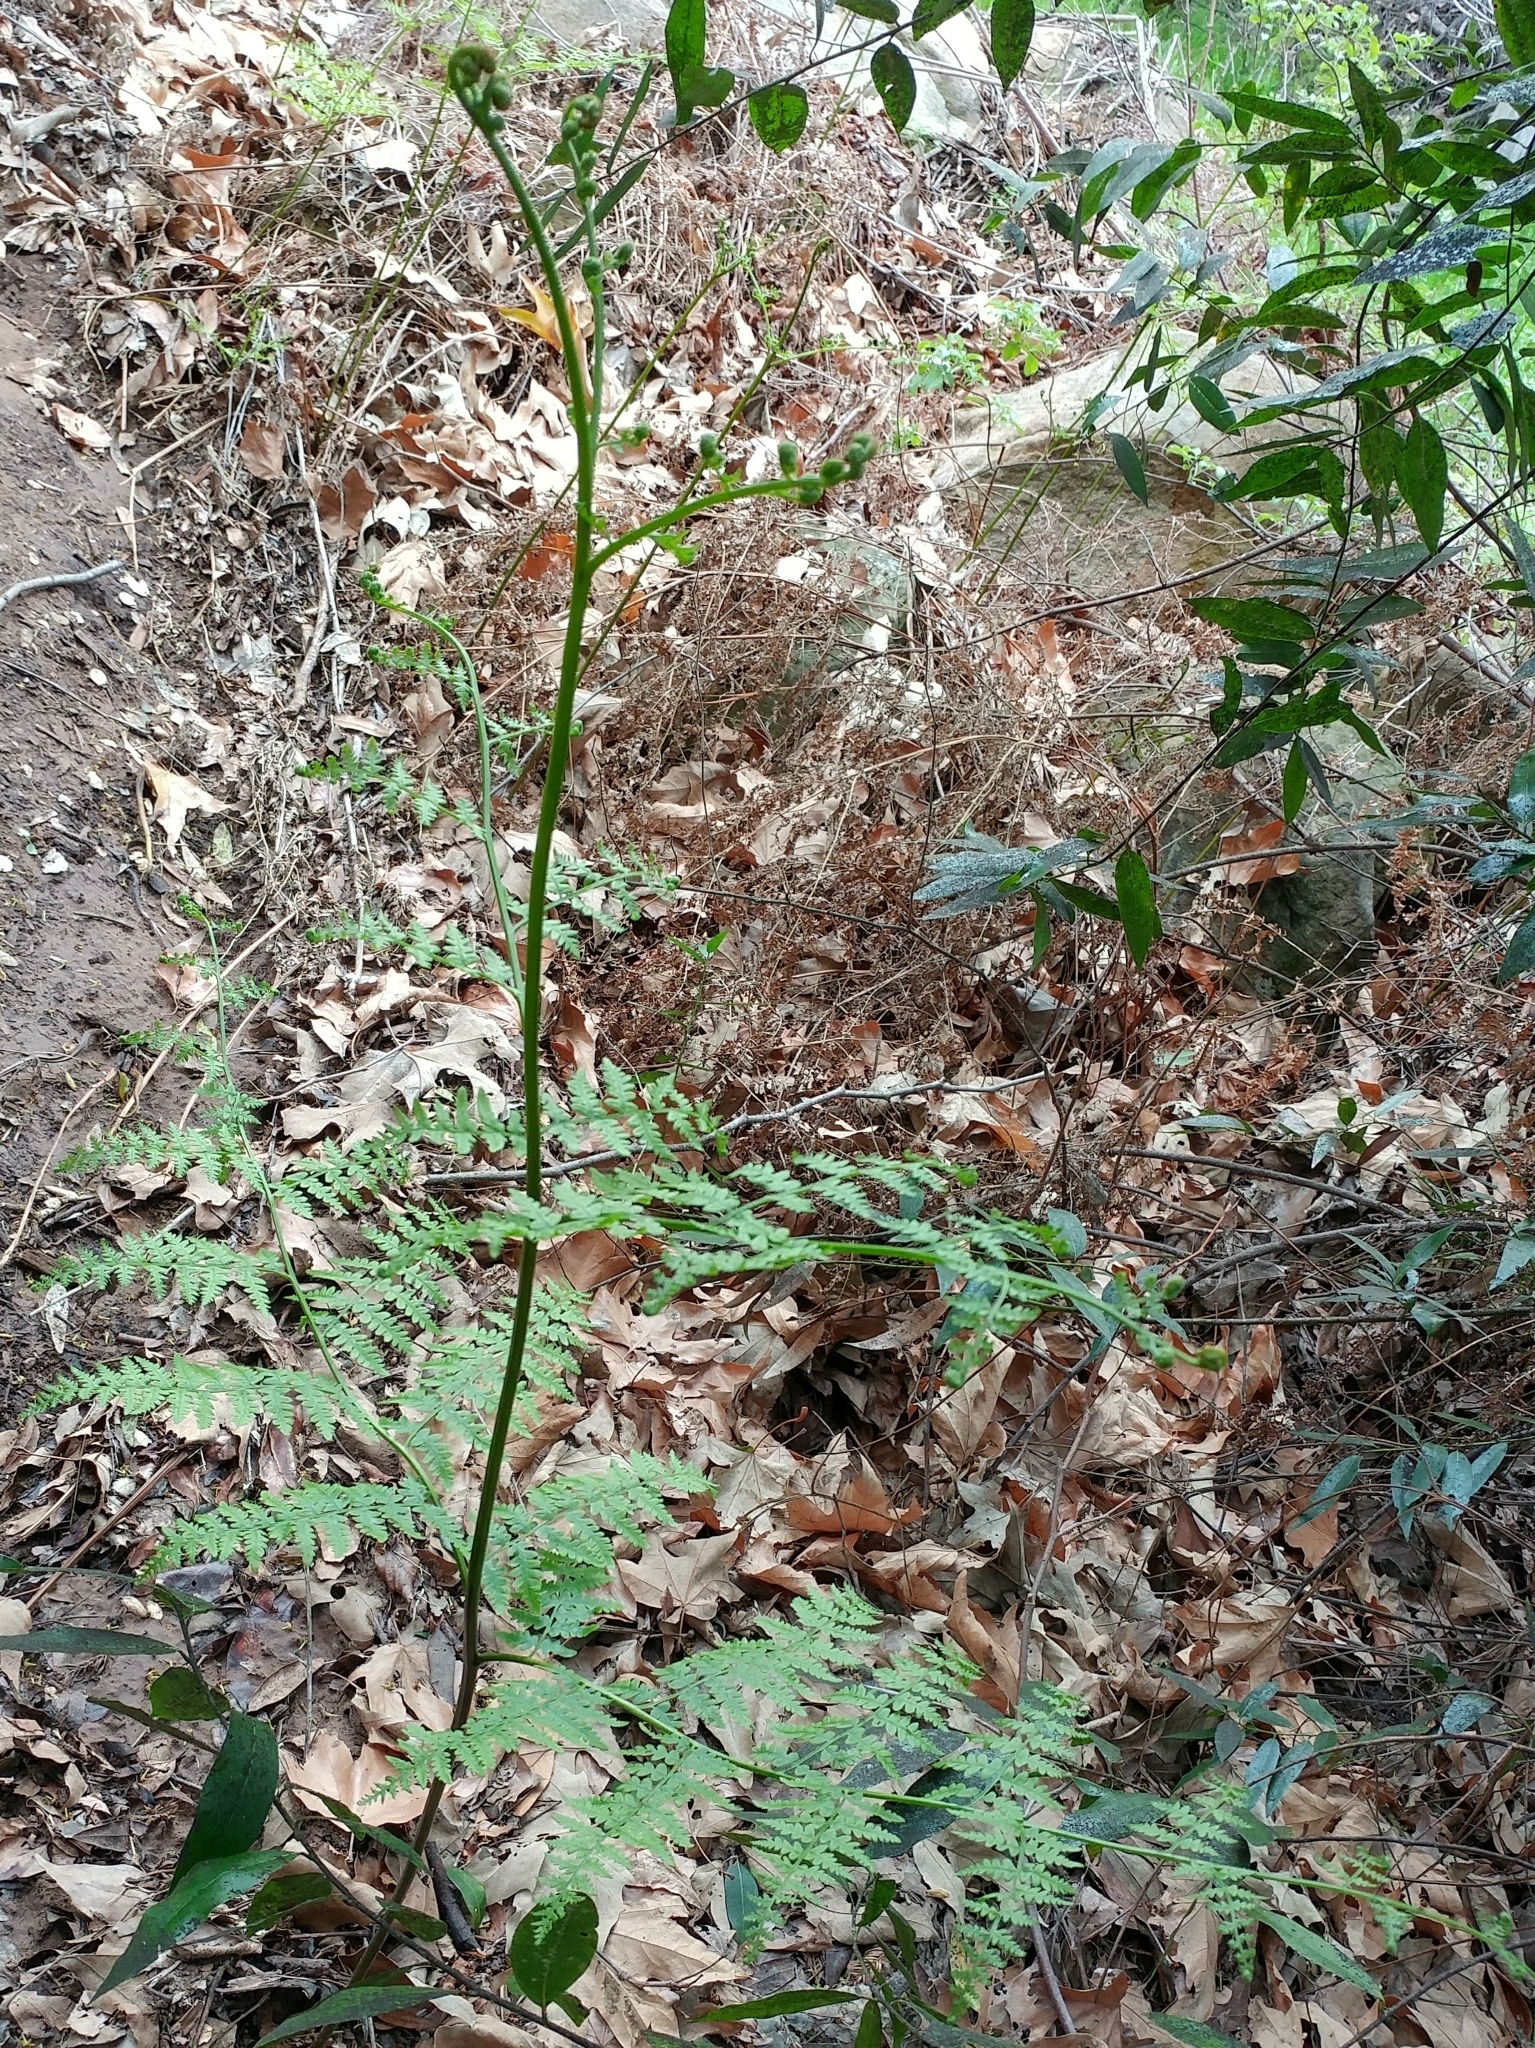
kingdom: Plantae
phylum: Tracheophyta
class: Polypodiopsida
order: Polypodiales
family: Dennstaedtiaceae
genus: Pteridium
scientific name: Pteridium aquilinum
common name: Bracken
